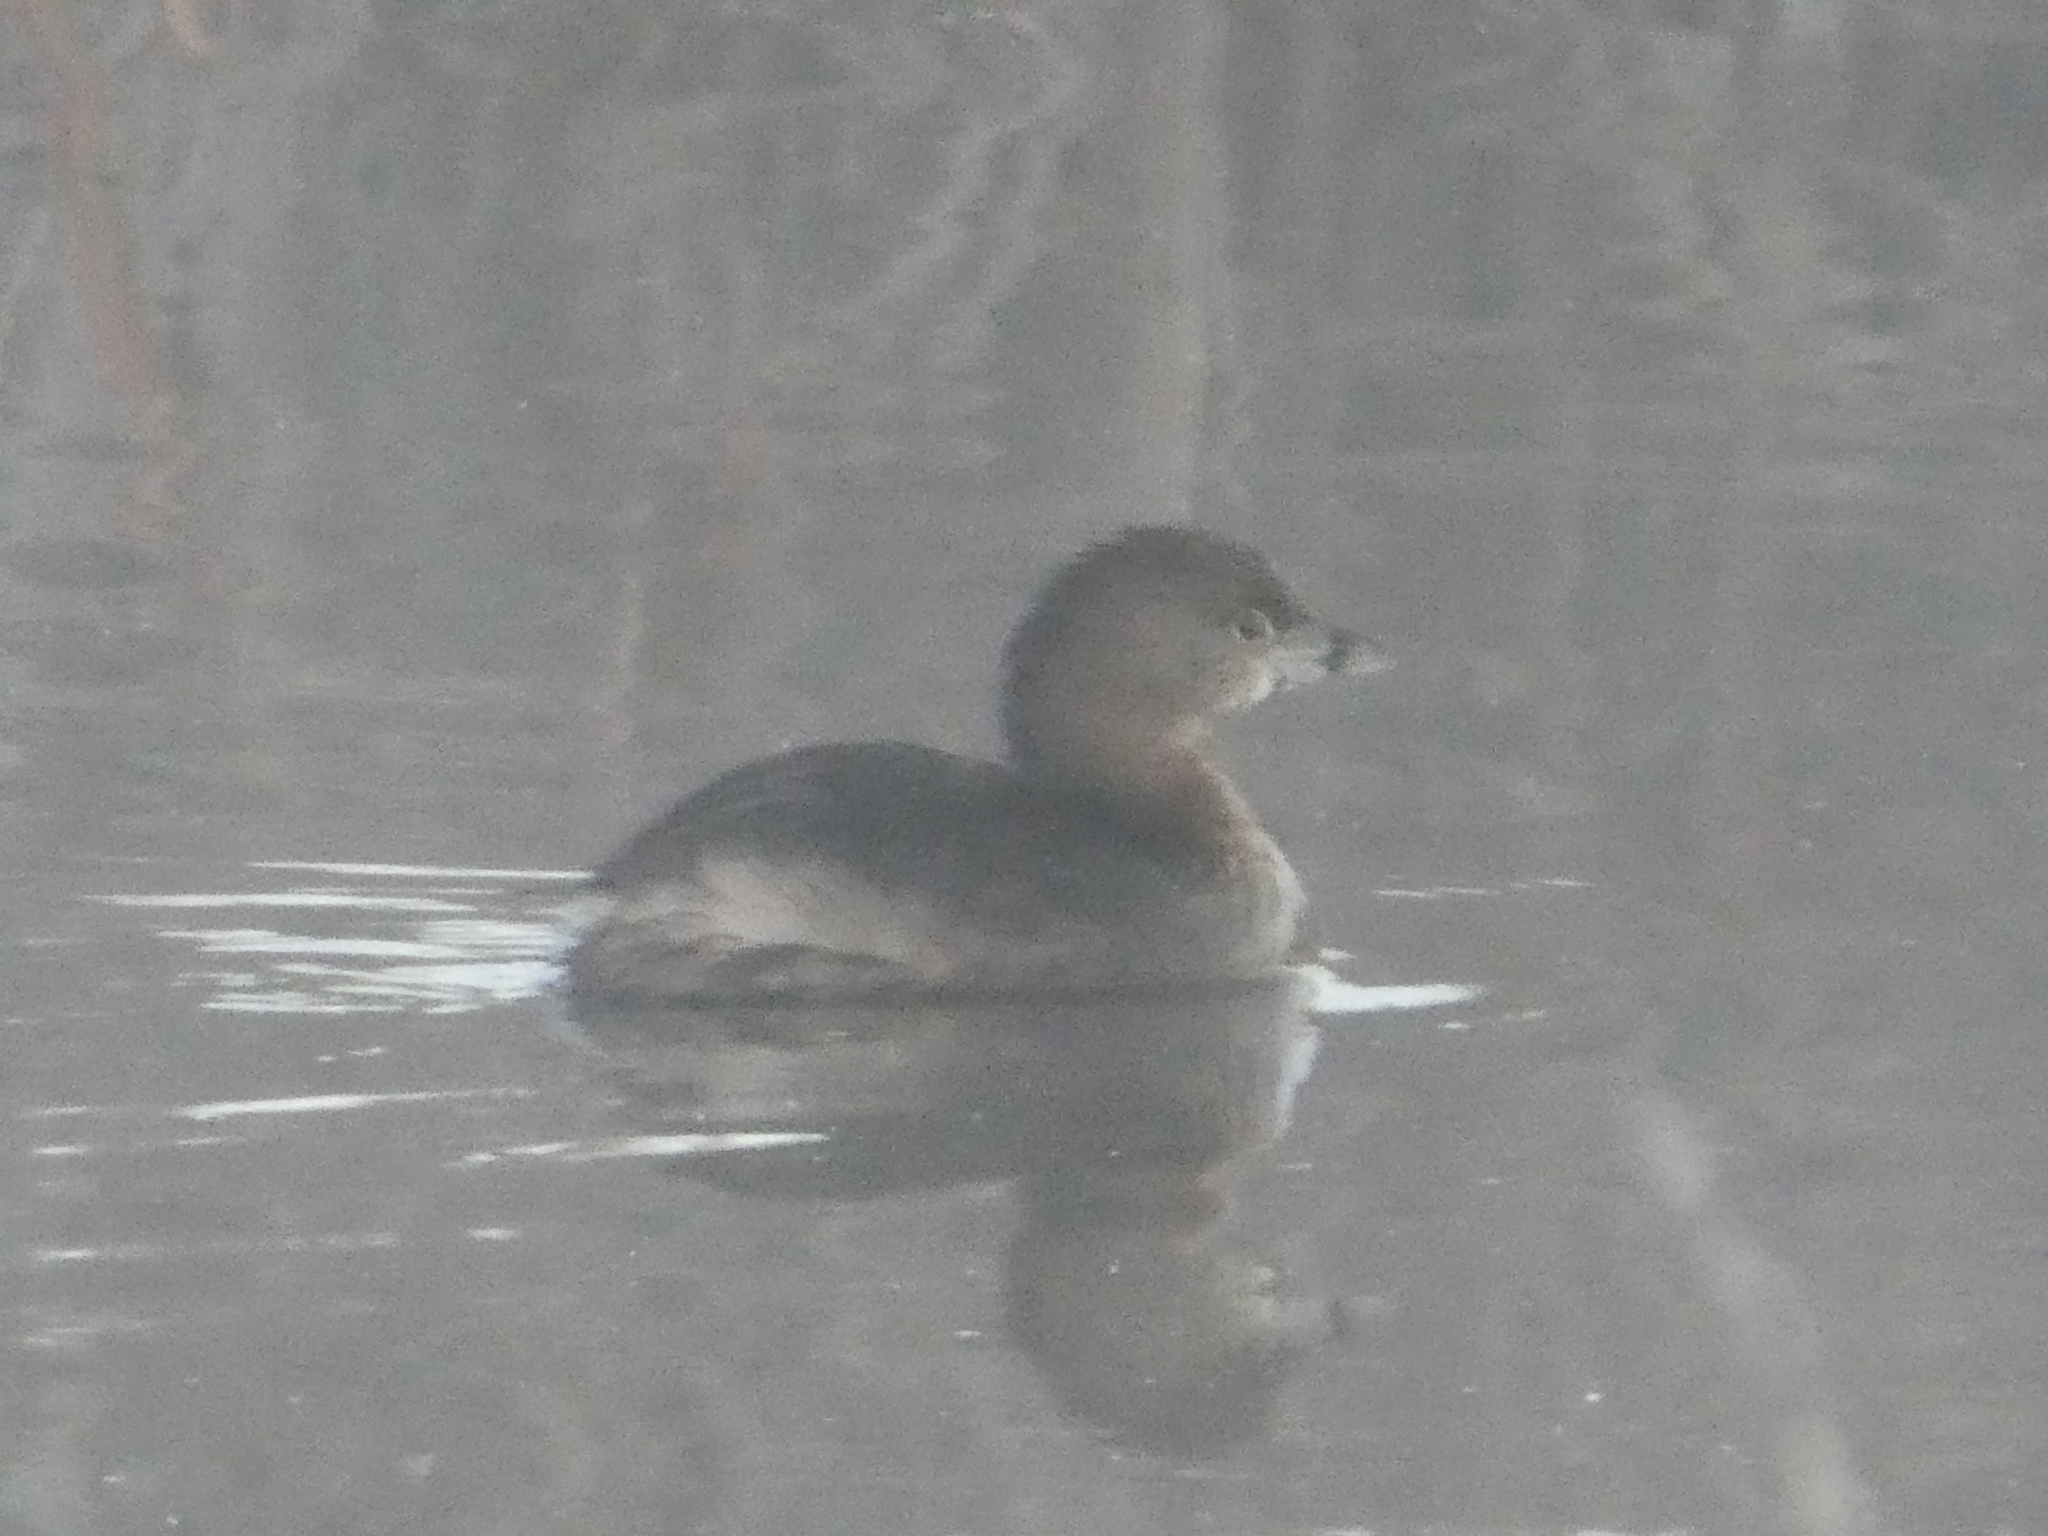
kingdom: Animalia
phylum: Chordata
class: Aves
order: Podicipediformes
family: Podicipedidae
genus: Podilymbus
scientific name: Podilymbus podiceps
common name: Pied-billed grebe
